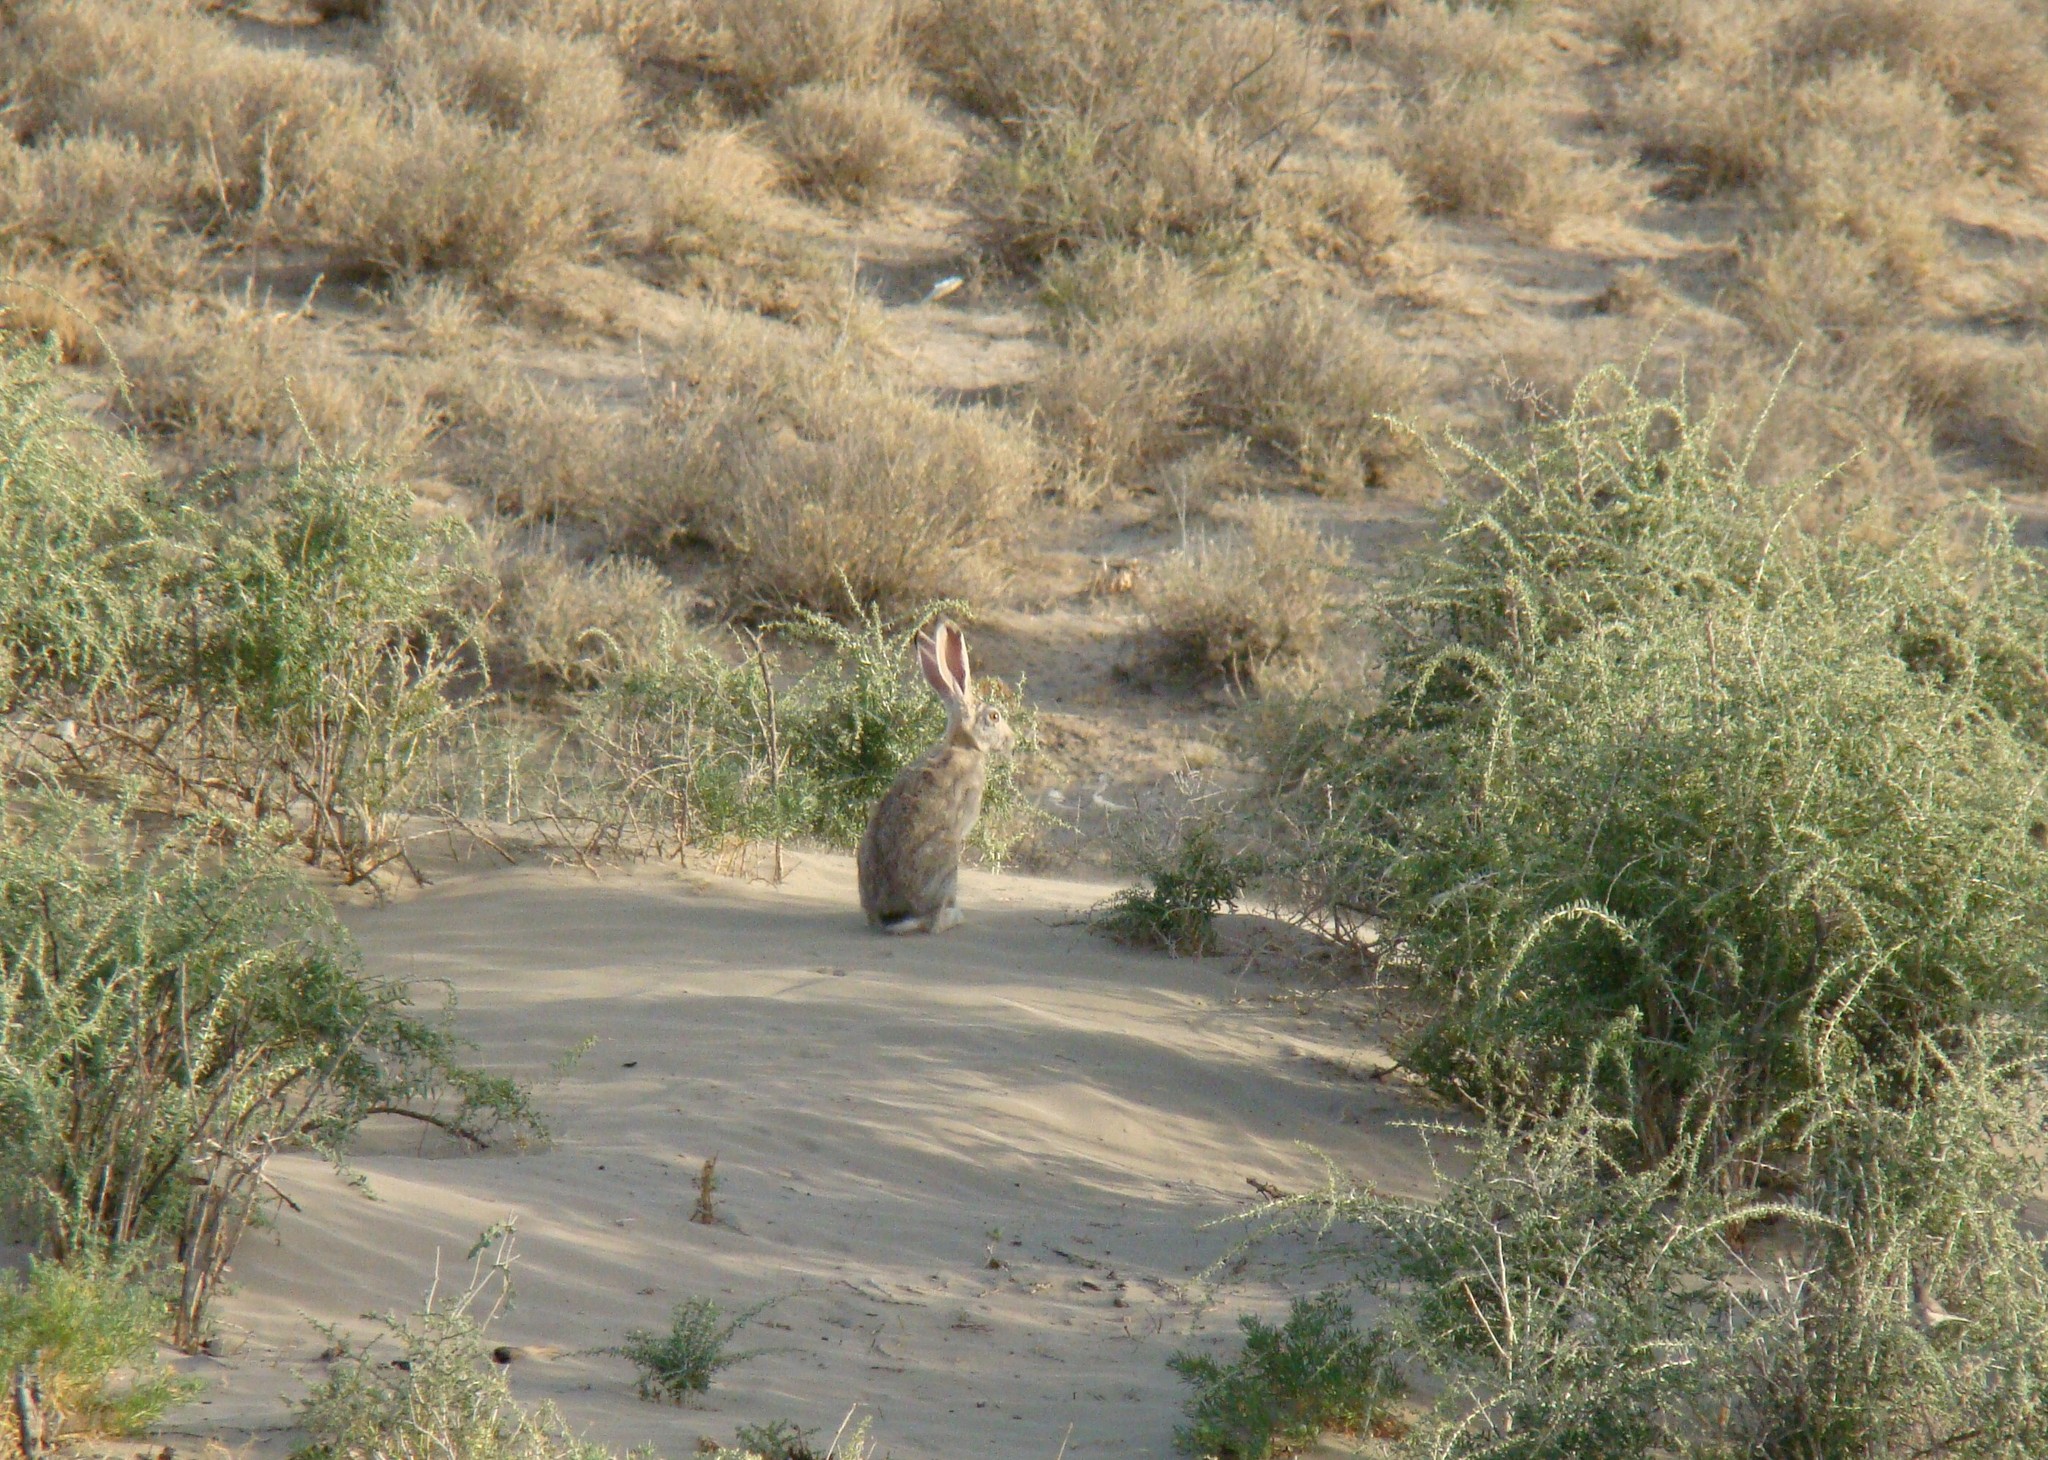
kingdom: Animalia
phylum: Chordata
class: Mammalia
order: Lagomorpha
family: Leporidae
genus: Lepus
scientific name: Lepus tolai
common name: Tolai hare
